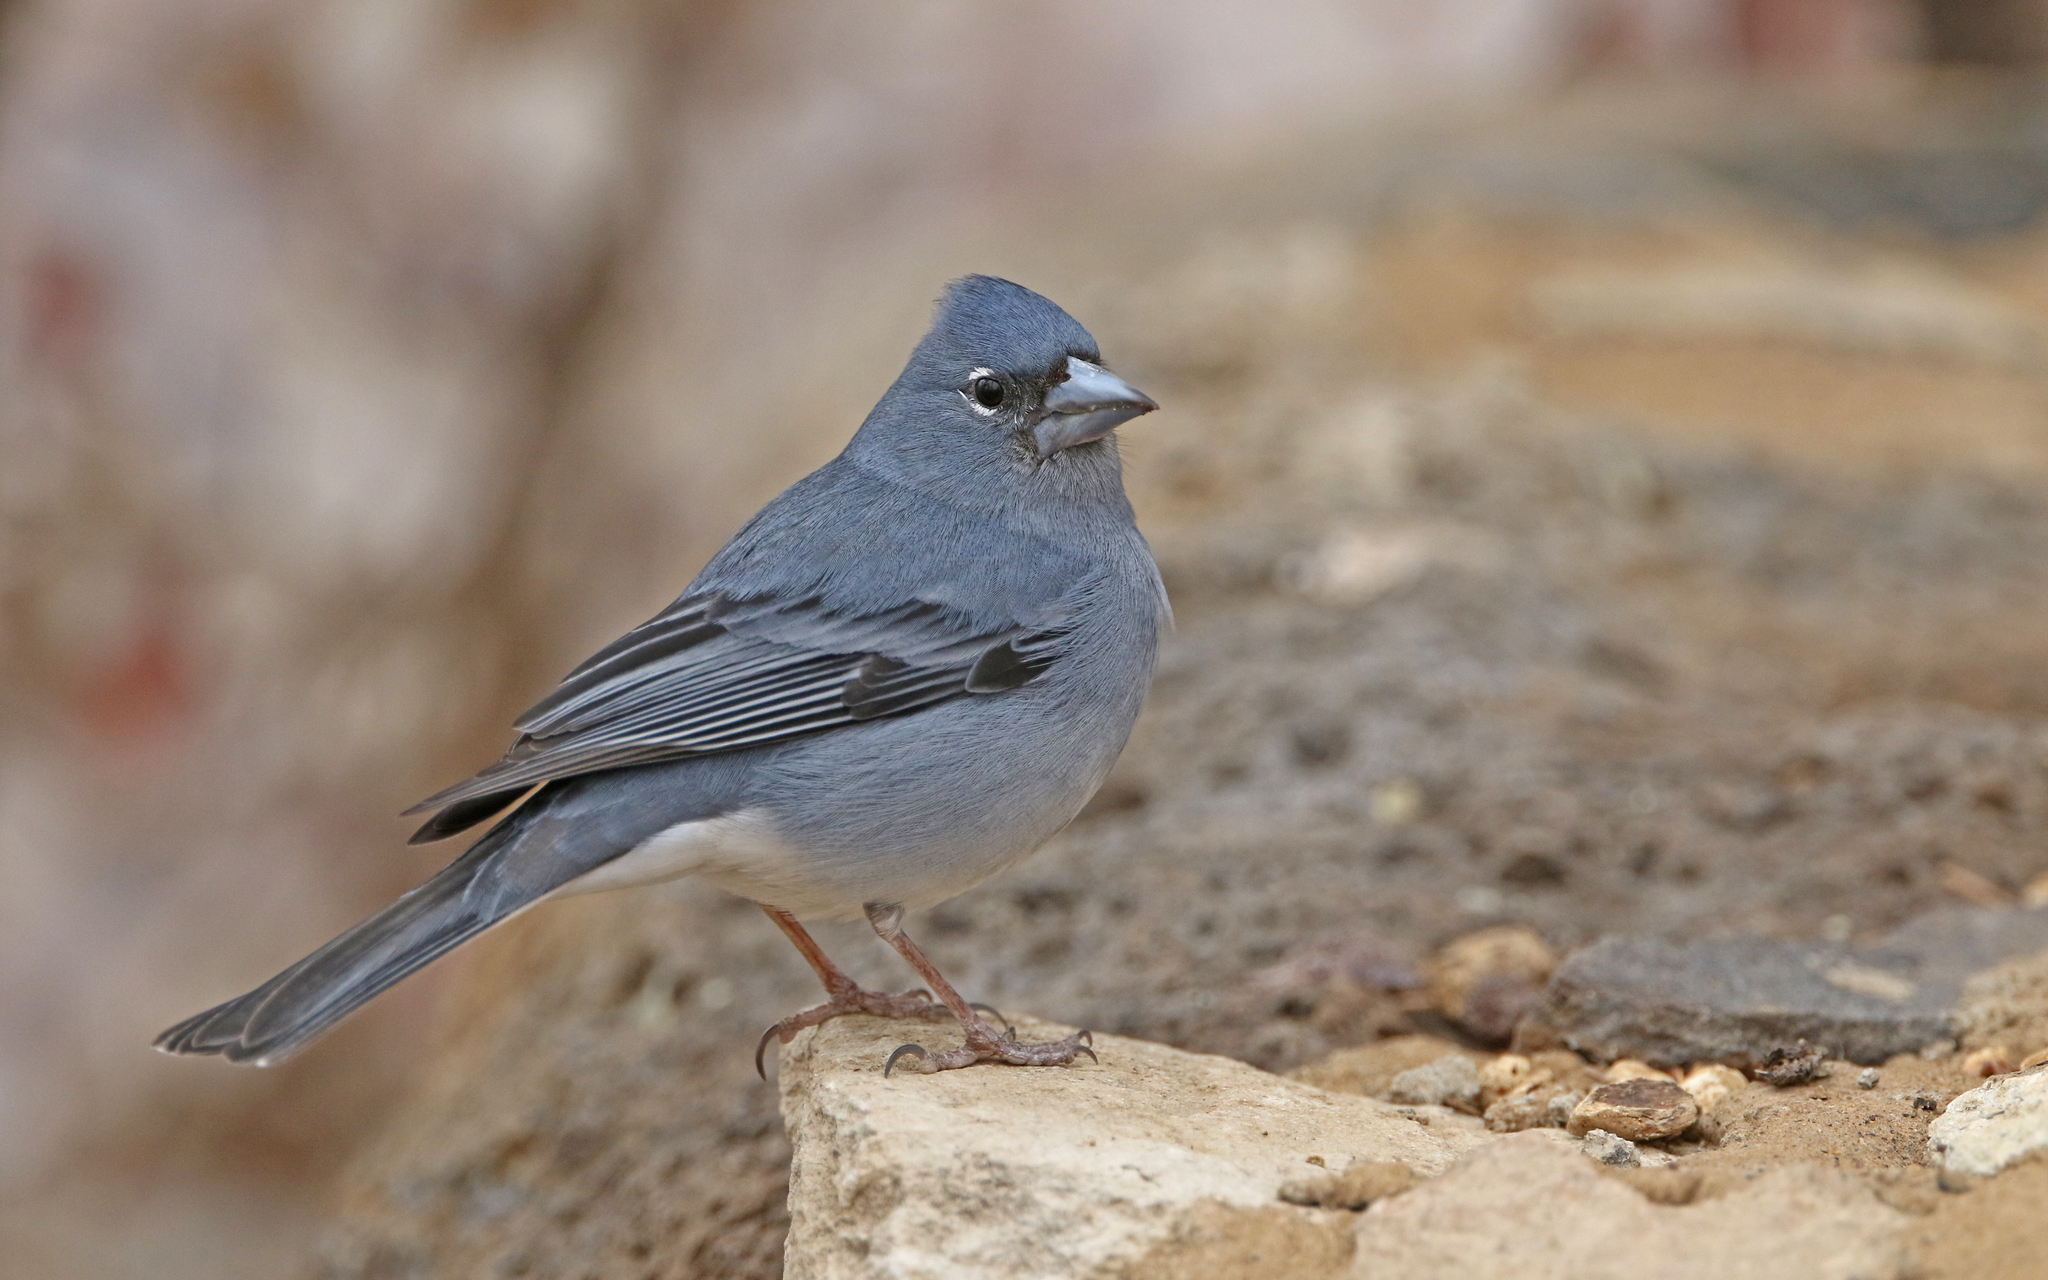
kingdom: Animalia
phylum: Chordata
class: Aves
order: Passeriformes
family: Fringillidae
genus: Fringilla
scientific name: Fringilla teydea
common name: Blue chaffinch
